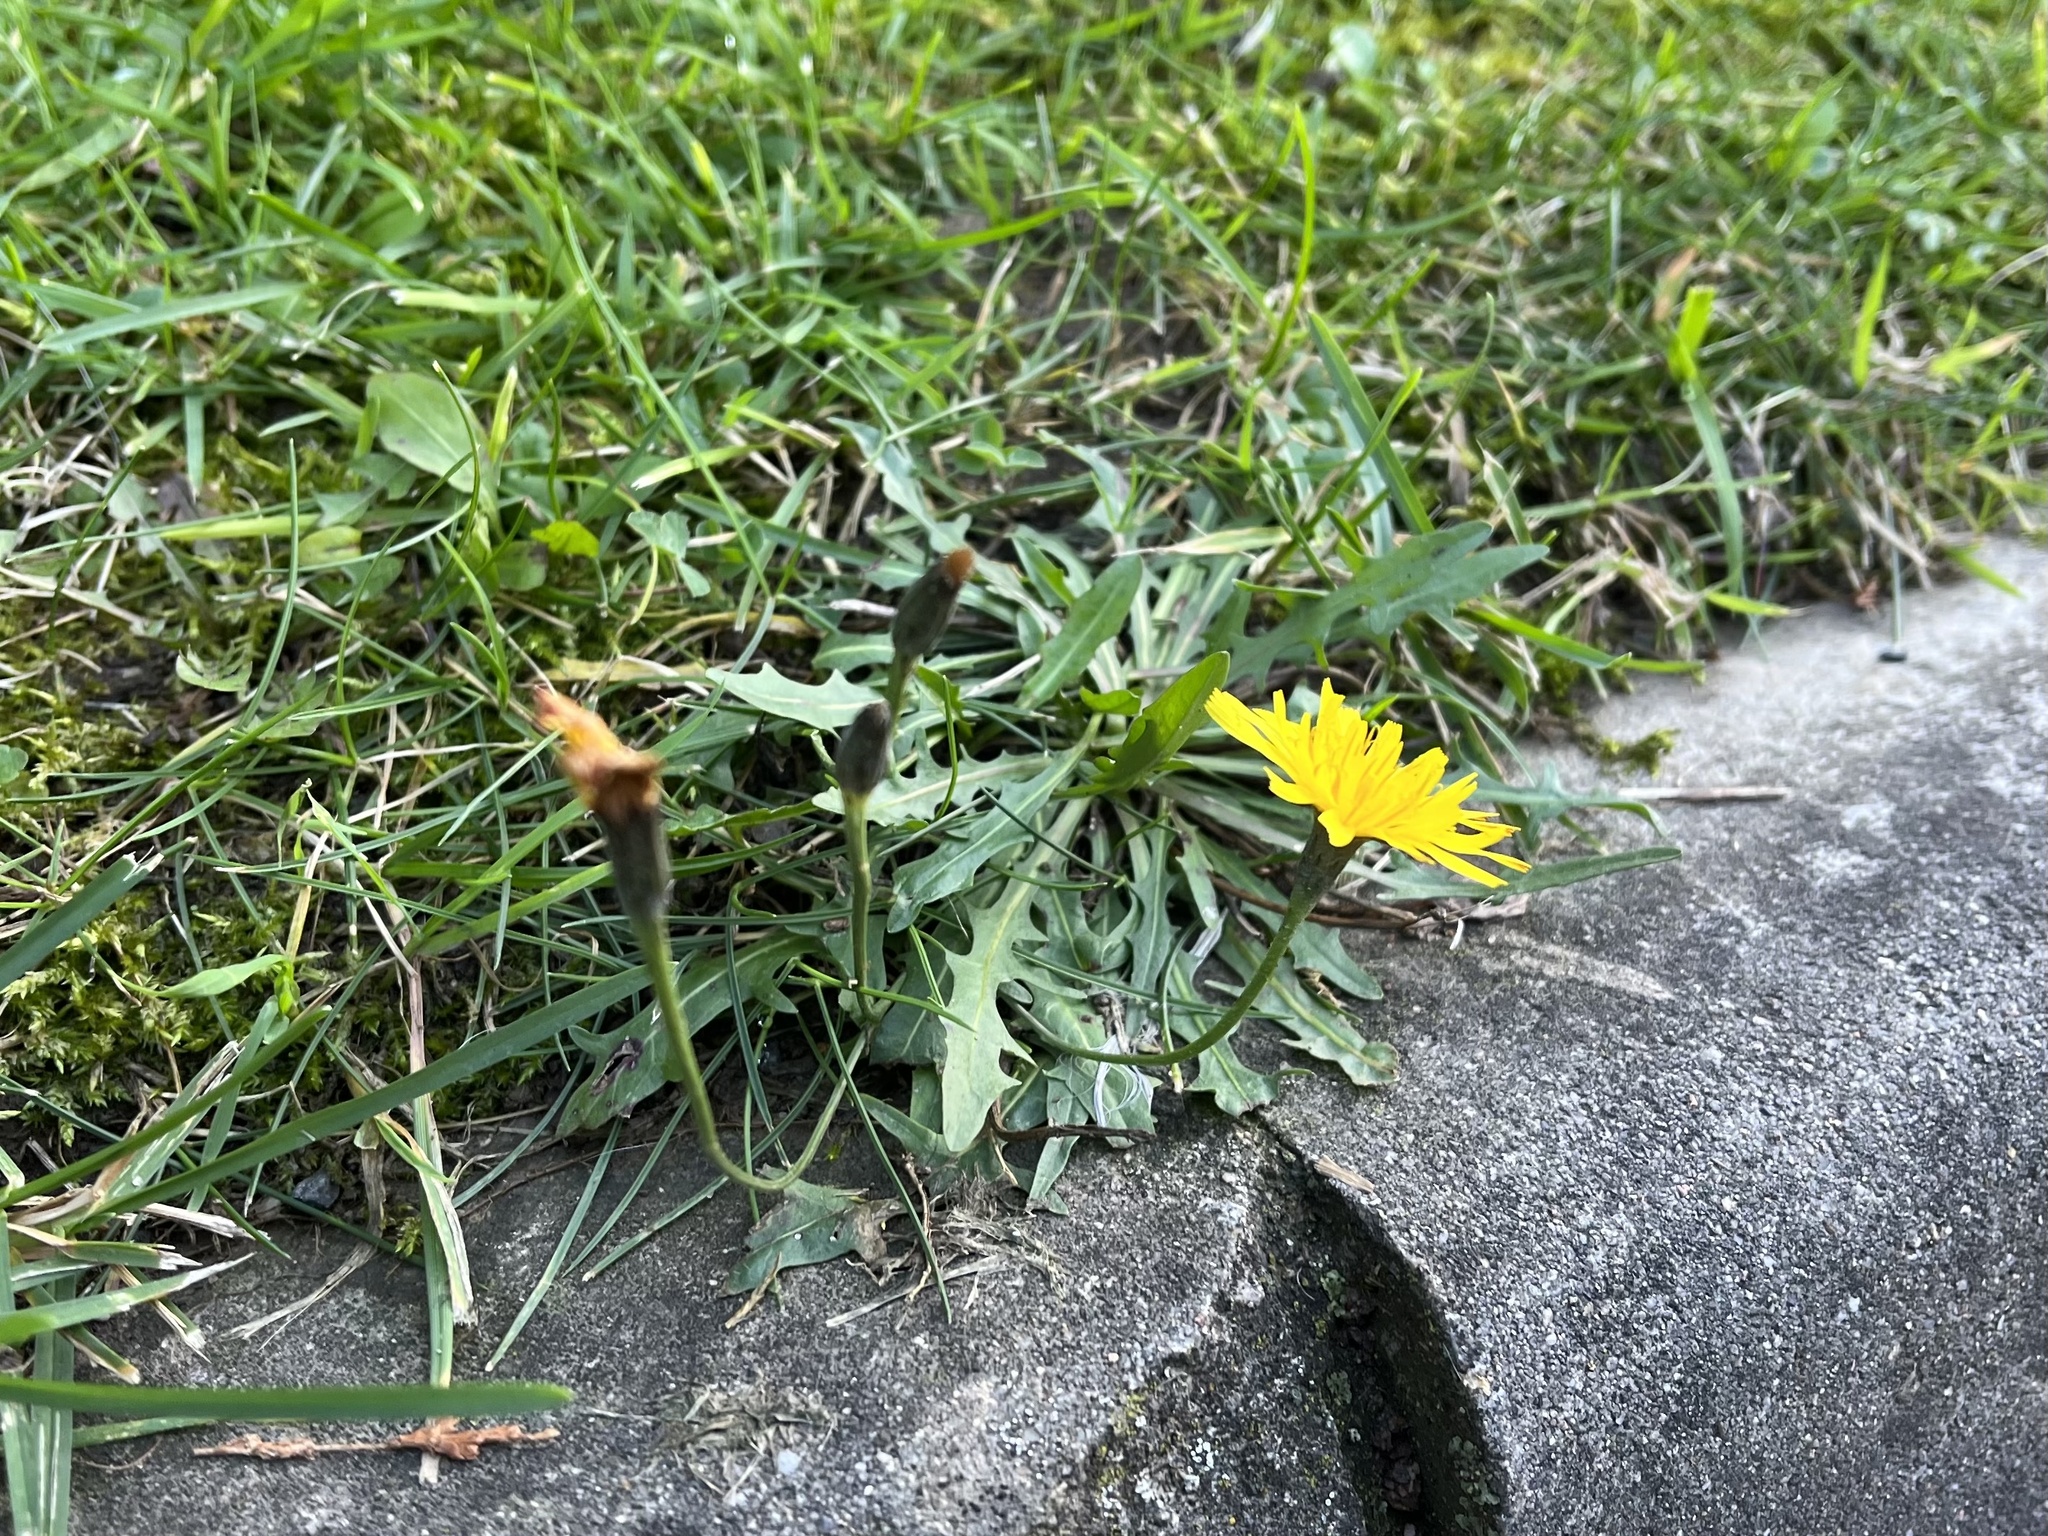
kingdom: Plantae
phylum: Tracheophyta
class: Magnoliopsida
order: Asterales
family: Asteraceae
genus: Scorzoneroides
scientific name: Scorzoneroides autumnalis
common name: Autumn hawkbit
